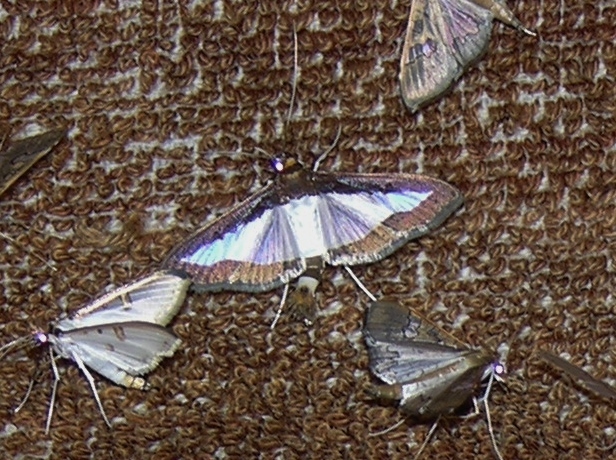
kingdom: Animalia
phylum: Arthropoda
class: Insecta
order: Lepidoptera
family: Crambidae
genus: Diaphania
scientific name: Diaphania indica
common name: Cucumber moth
